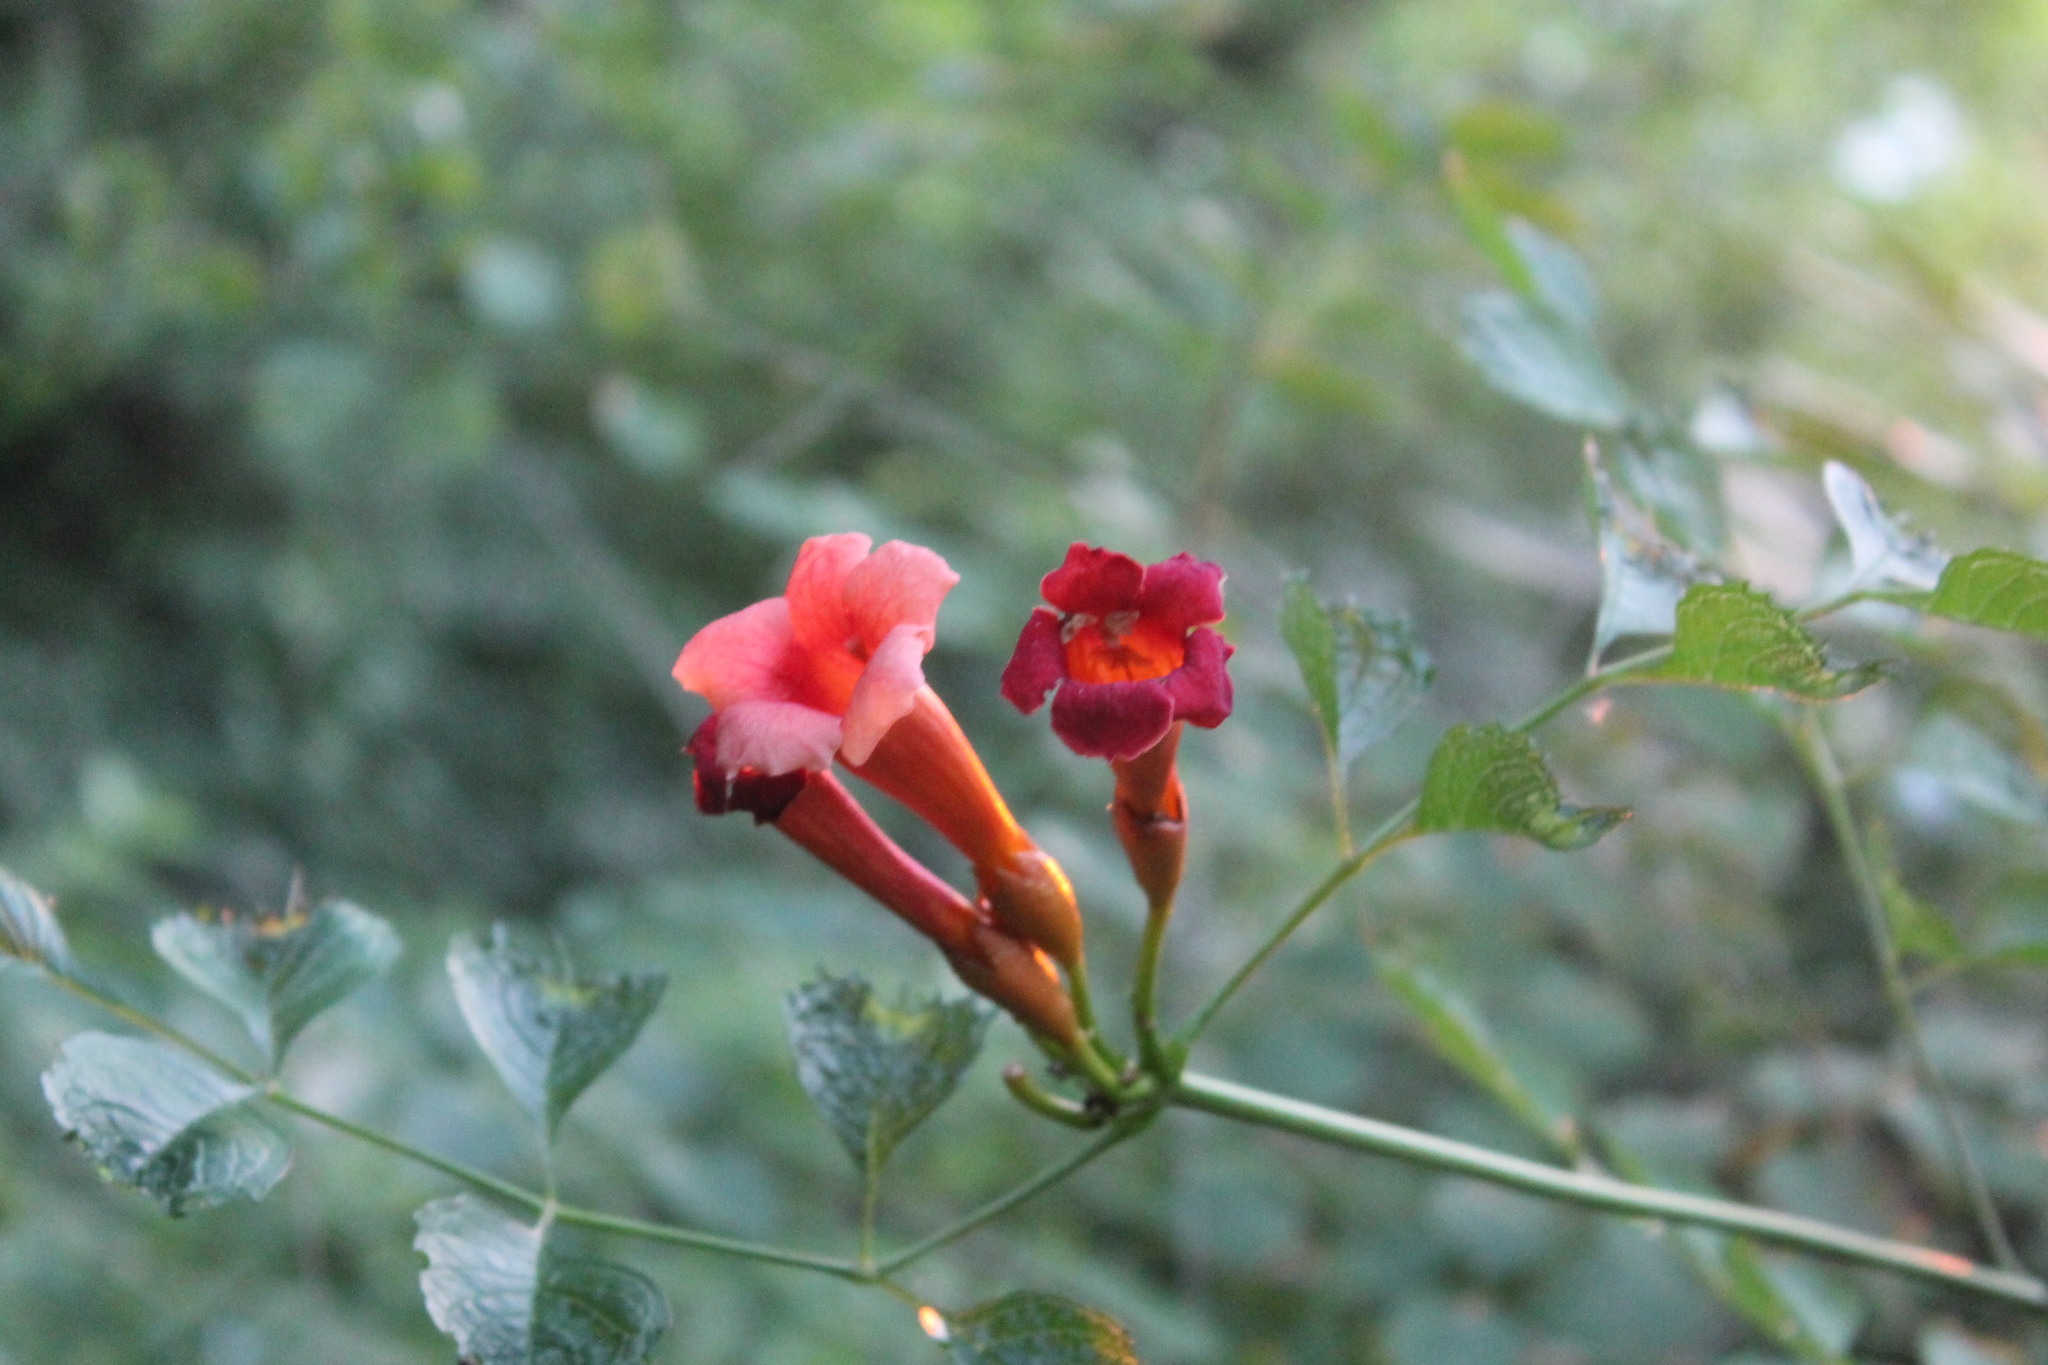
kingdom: Plantae
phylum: Tracheophyta
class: Magnoliopsida
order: Lamiales
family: Bignoniaceae
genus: Campsis
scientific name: Campsis radicans
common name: Trumpet-creeper
